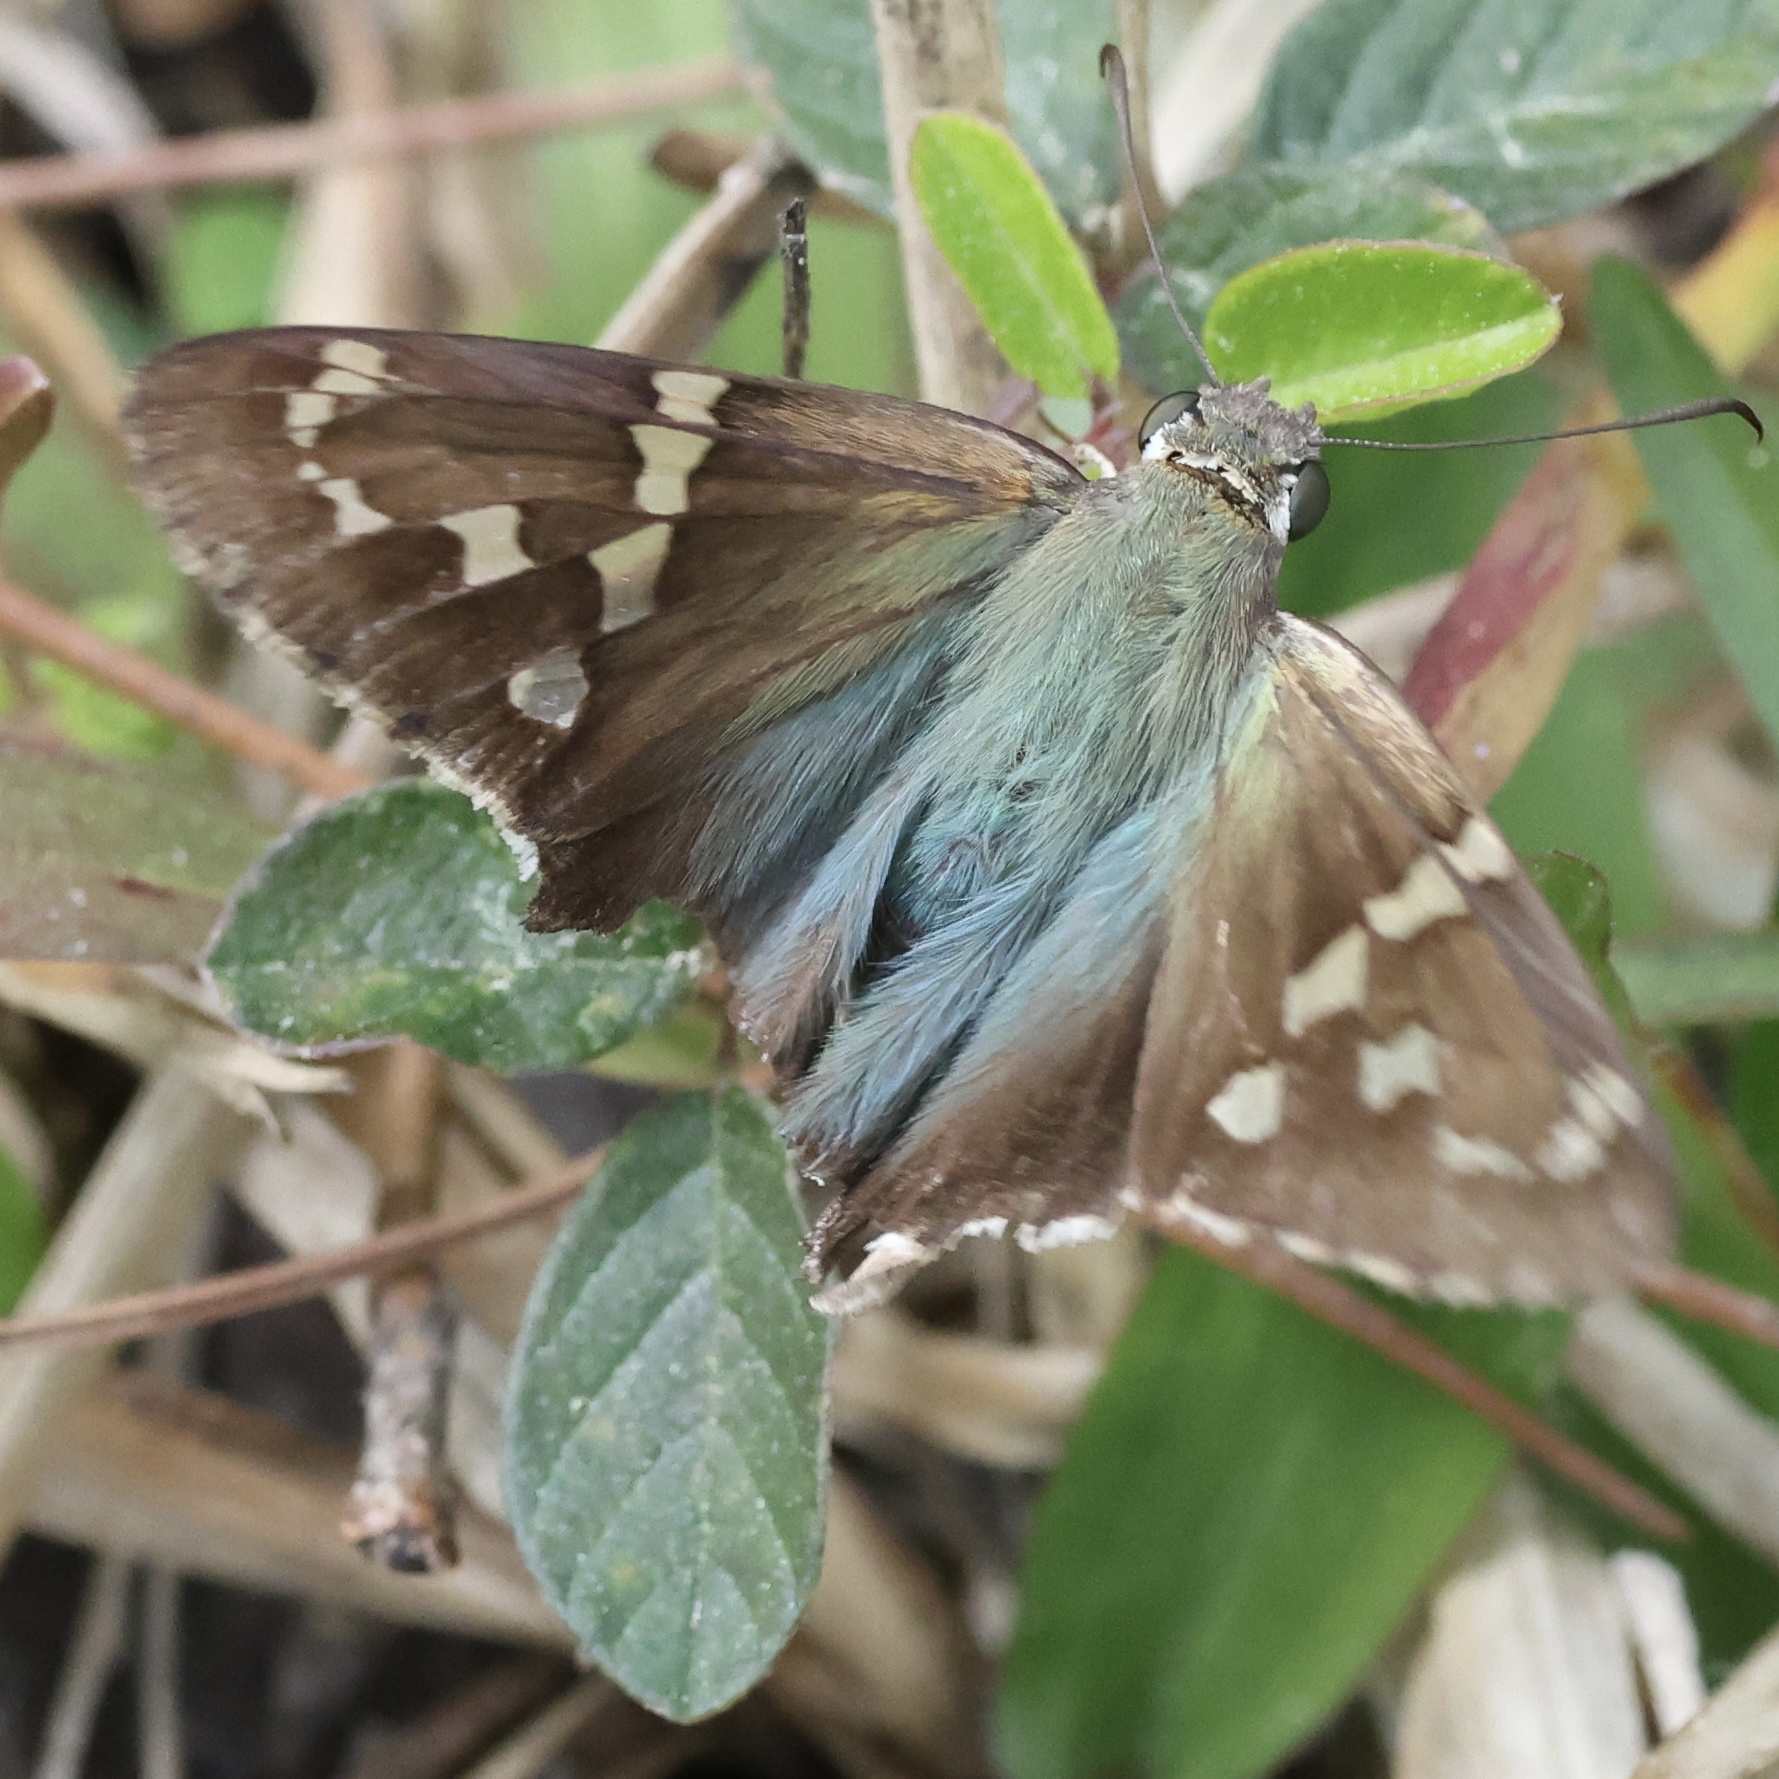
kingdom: Animalia
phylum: Arthropoda
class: Insecta
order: Lepidoptera
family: Hesperiidae
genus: Urbanus
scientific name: Urbanus proteus
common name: Long-tailed skipper
